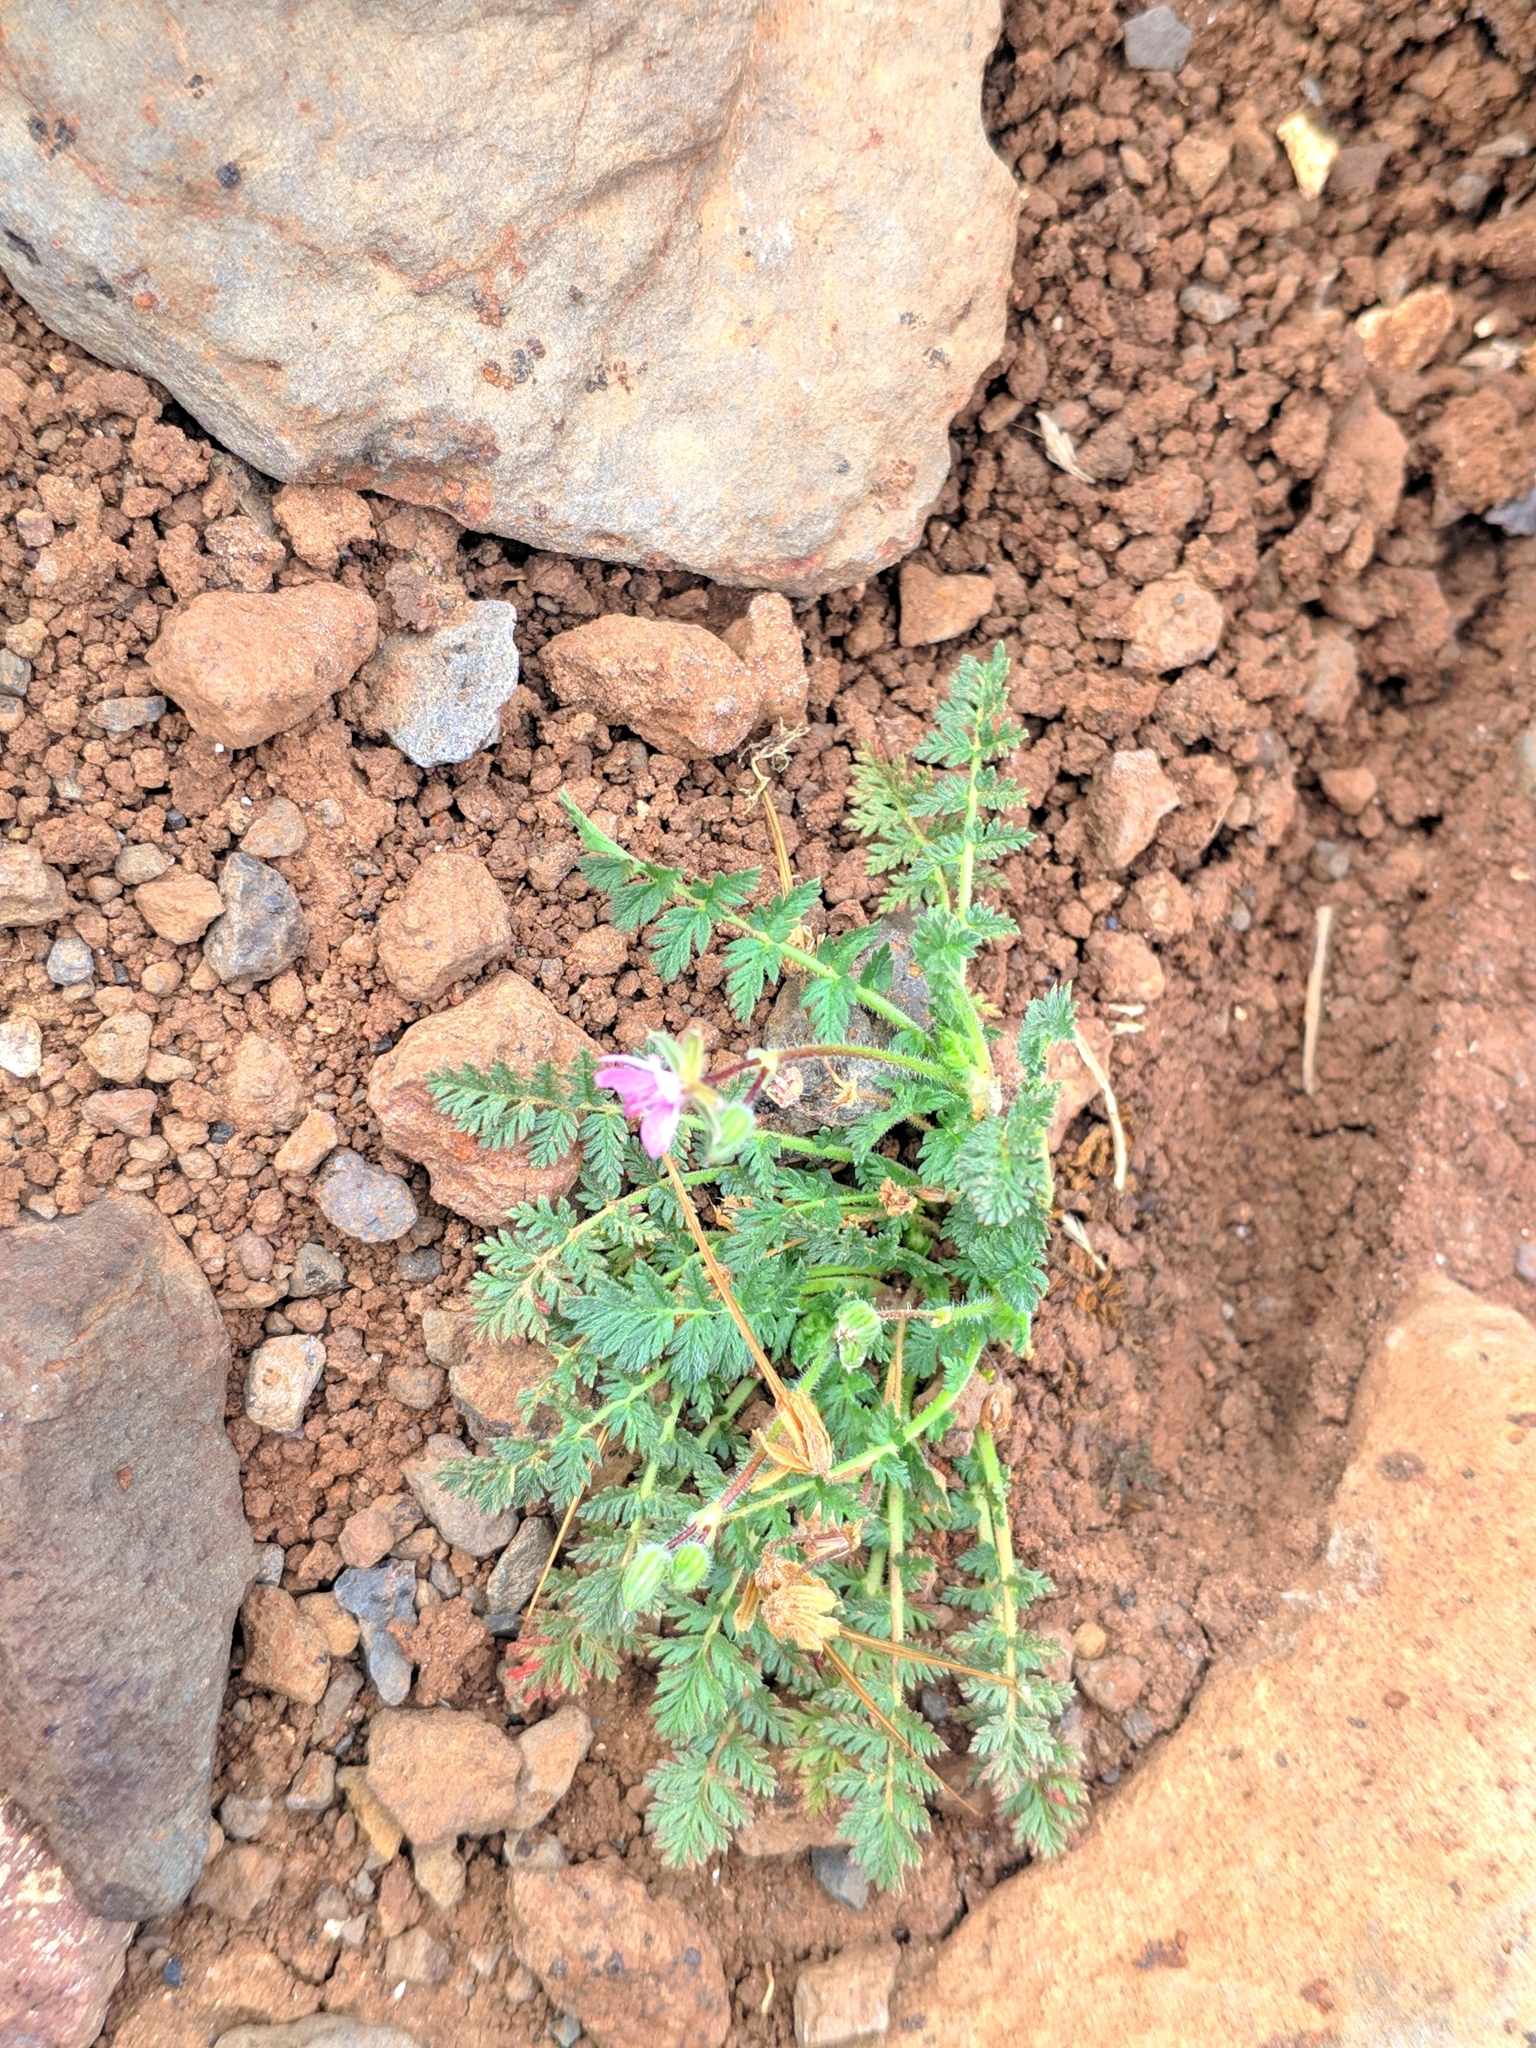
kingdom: Plantae
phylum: Tracheophyta
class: Magnoliopsida
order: Geraniales
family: Geraniaceae
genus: Erodium
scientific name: Erodium cicutarium
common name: Common stork's-bill
